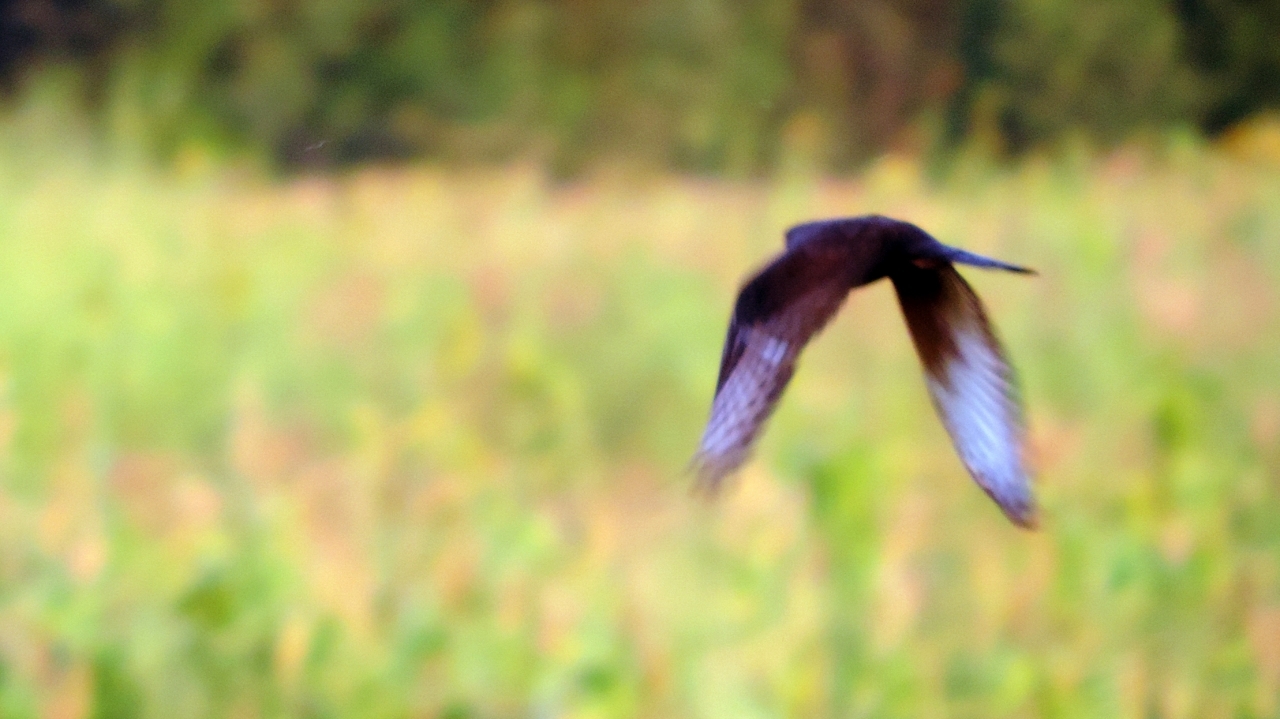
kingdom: Animalia
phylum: Chordata
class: Aves
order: Accipitriformes
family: Accipitridae
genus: Micronisus
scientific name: Micronisus gabar
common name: Gabar goshawk
